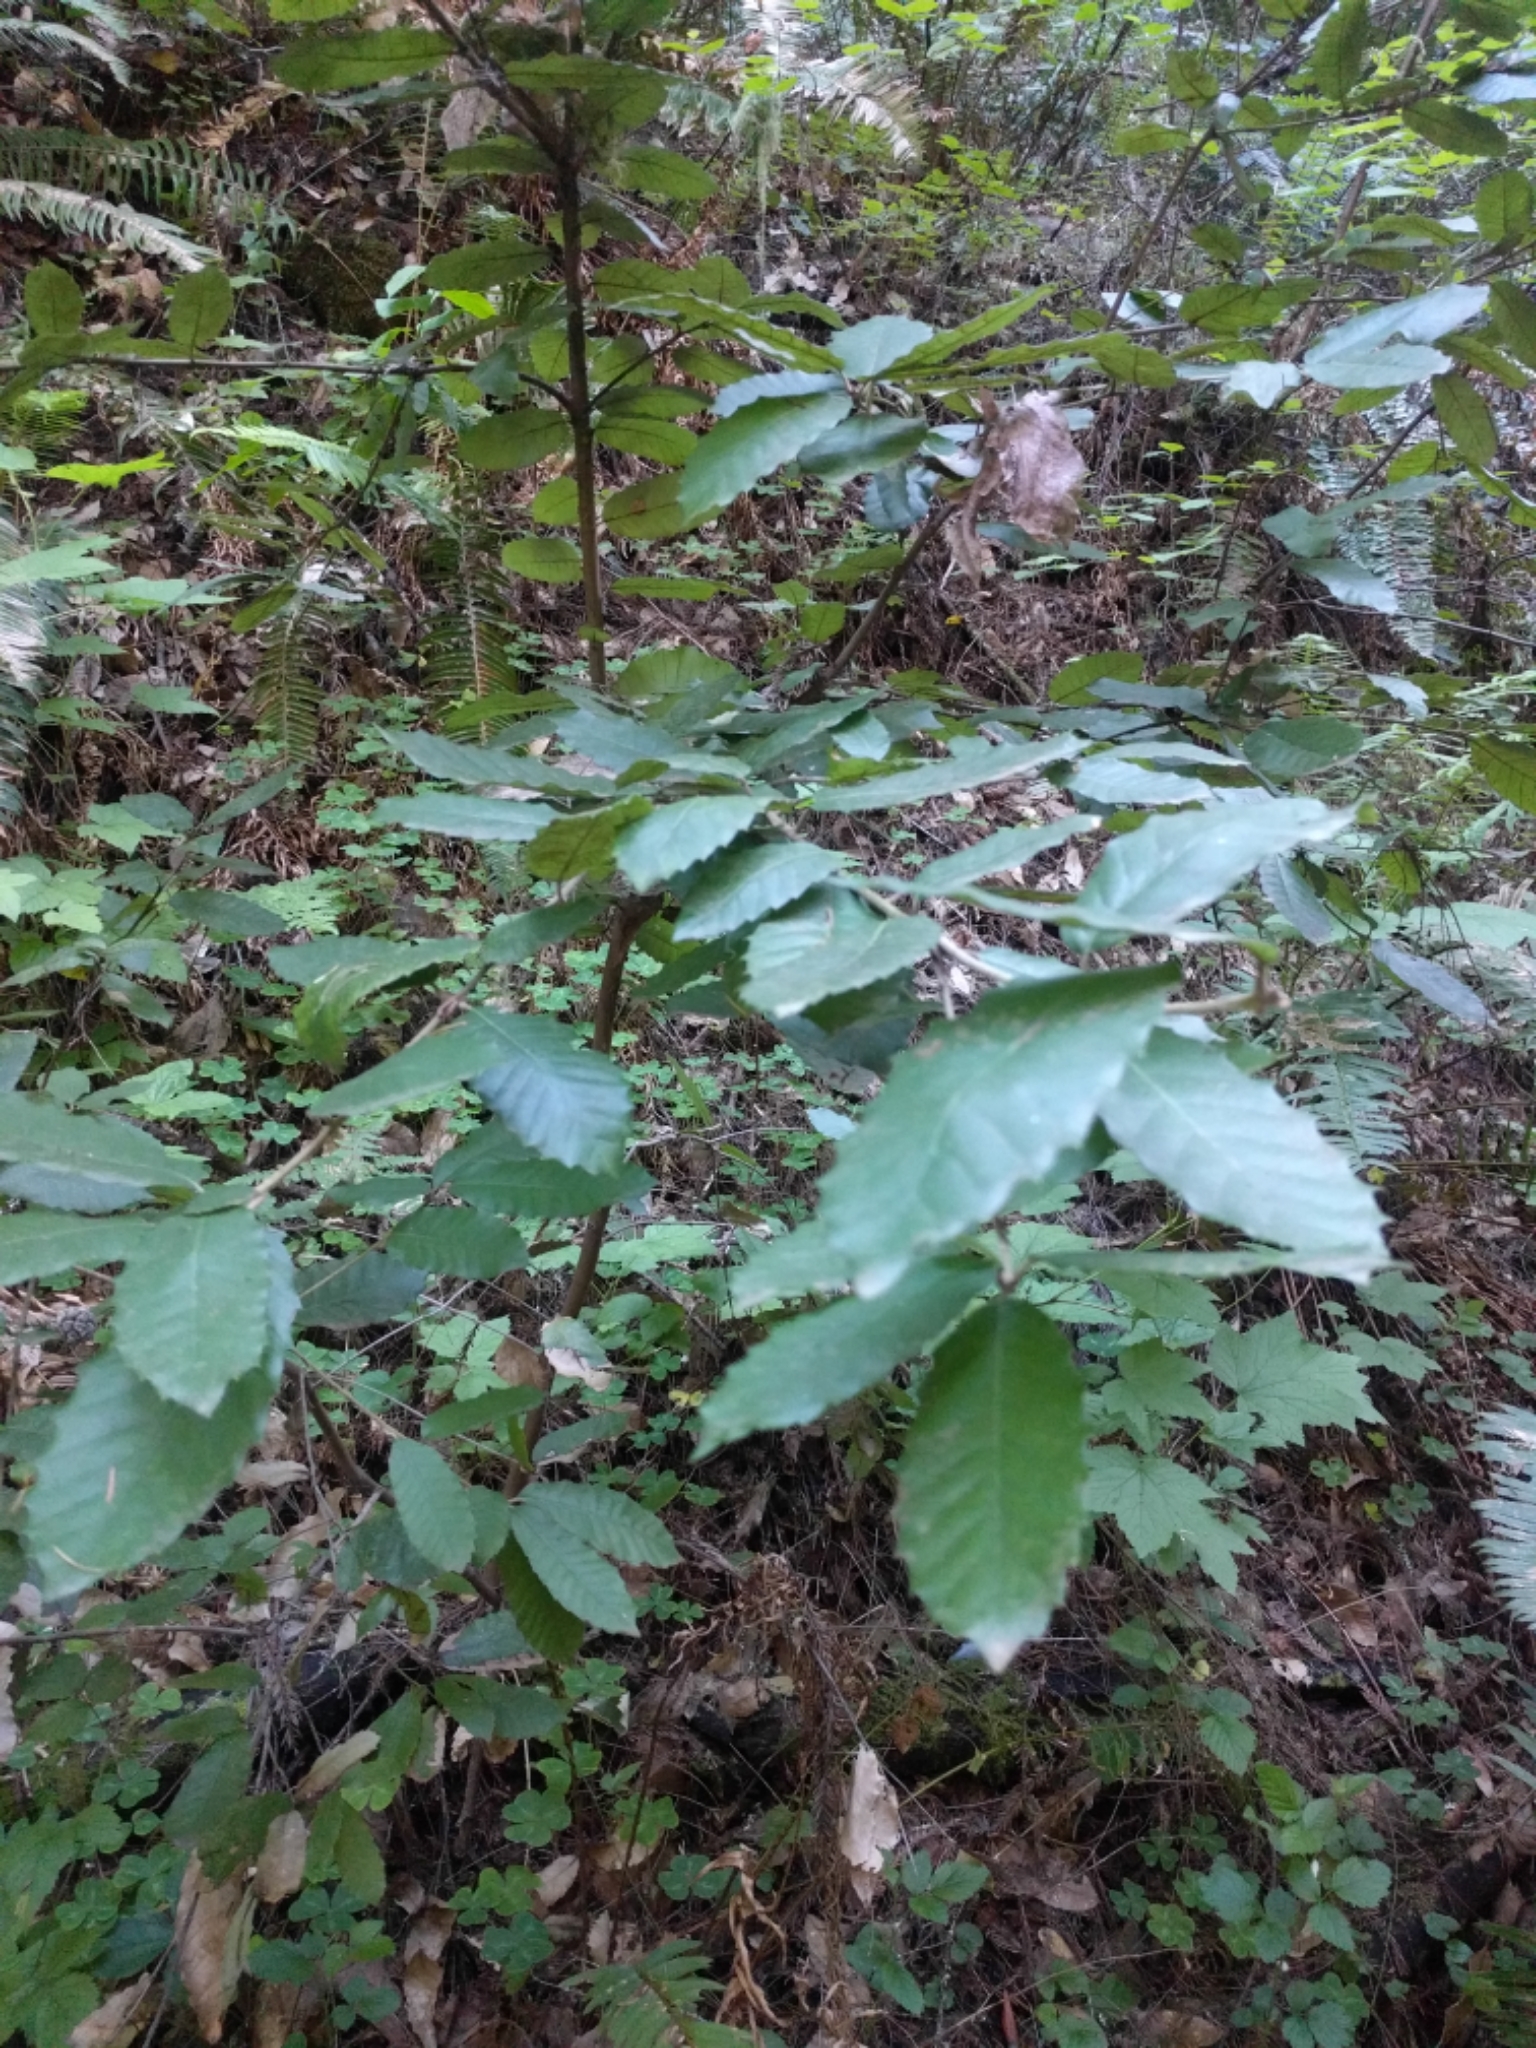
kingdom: Plantae
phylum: Tracheophyta
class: Magnoliopsida
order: Fagales
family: Fagaceae
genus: Notholithocarpus
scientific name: Notholithocarpus densiflorus
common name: Tan bark oak
